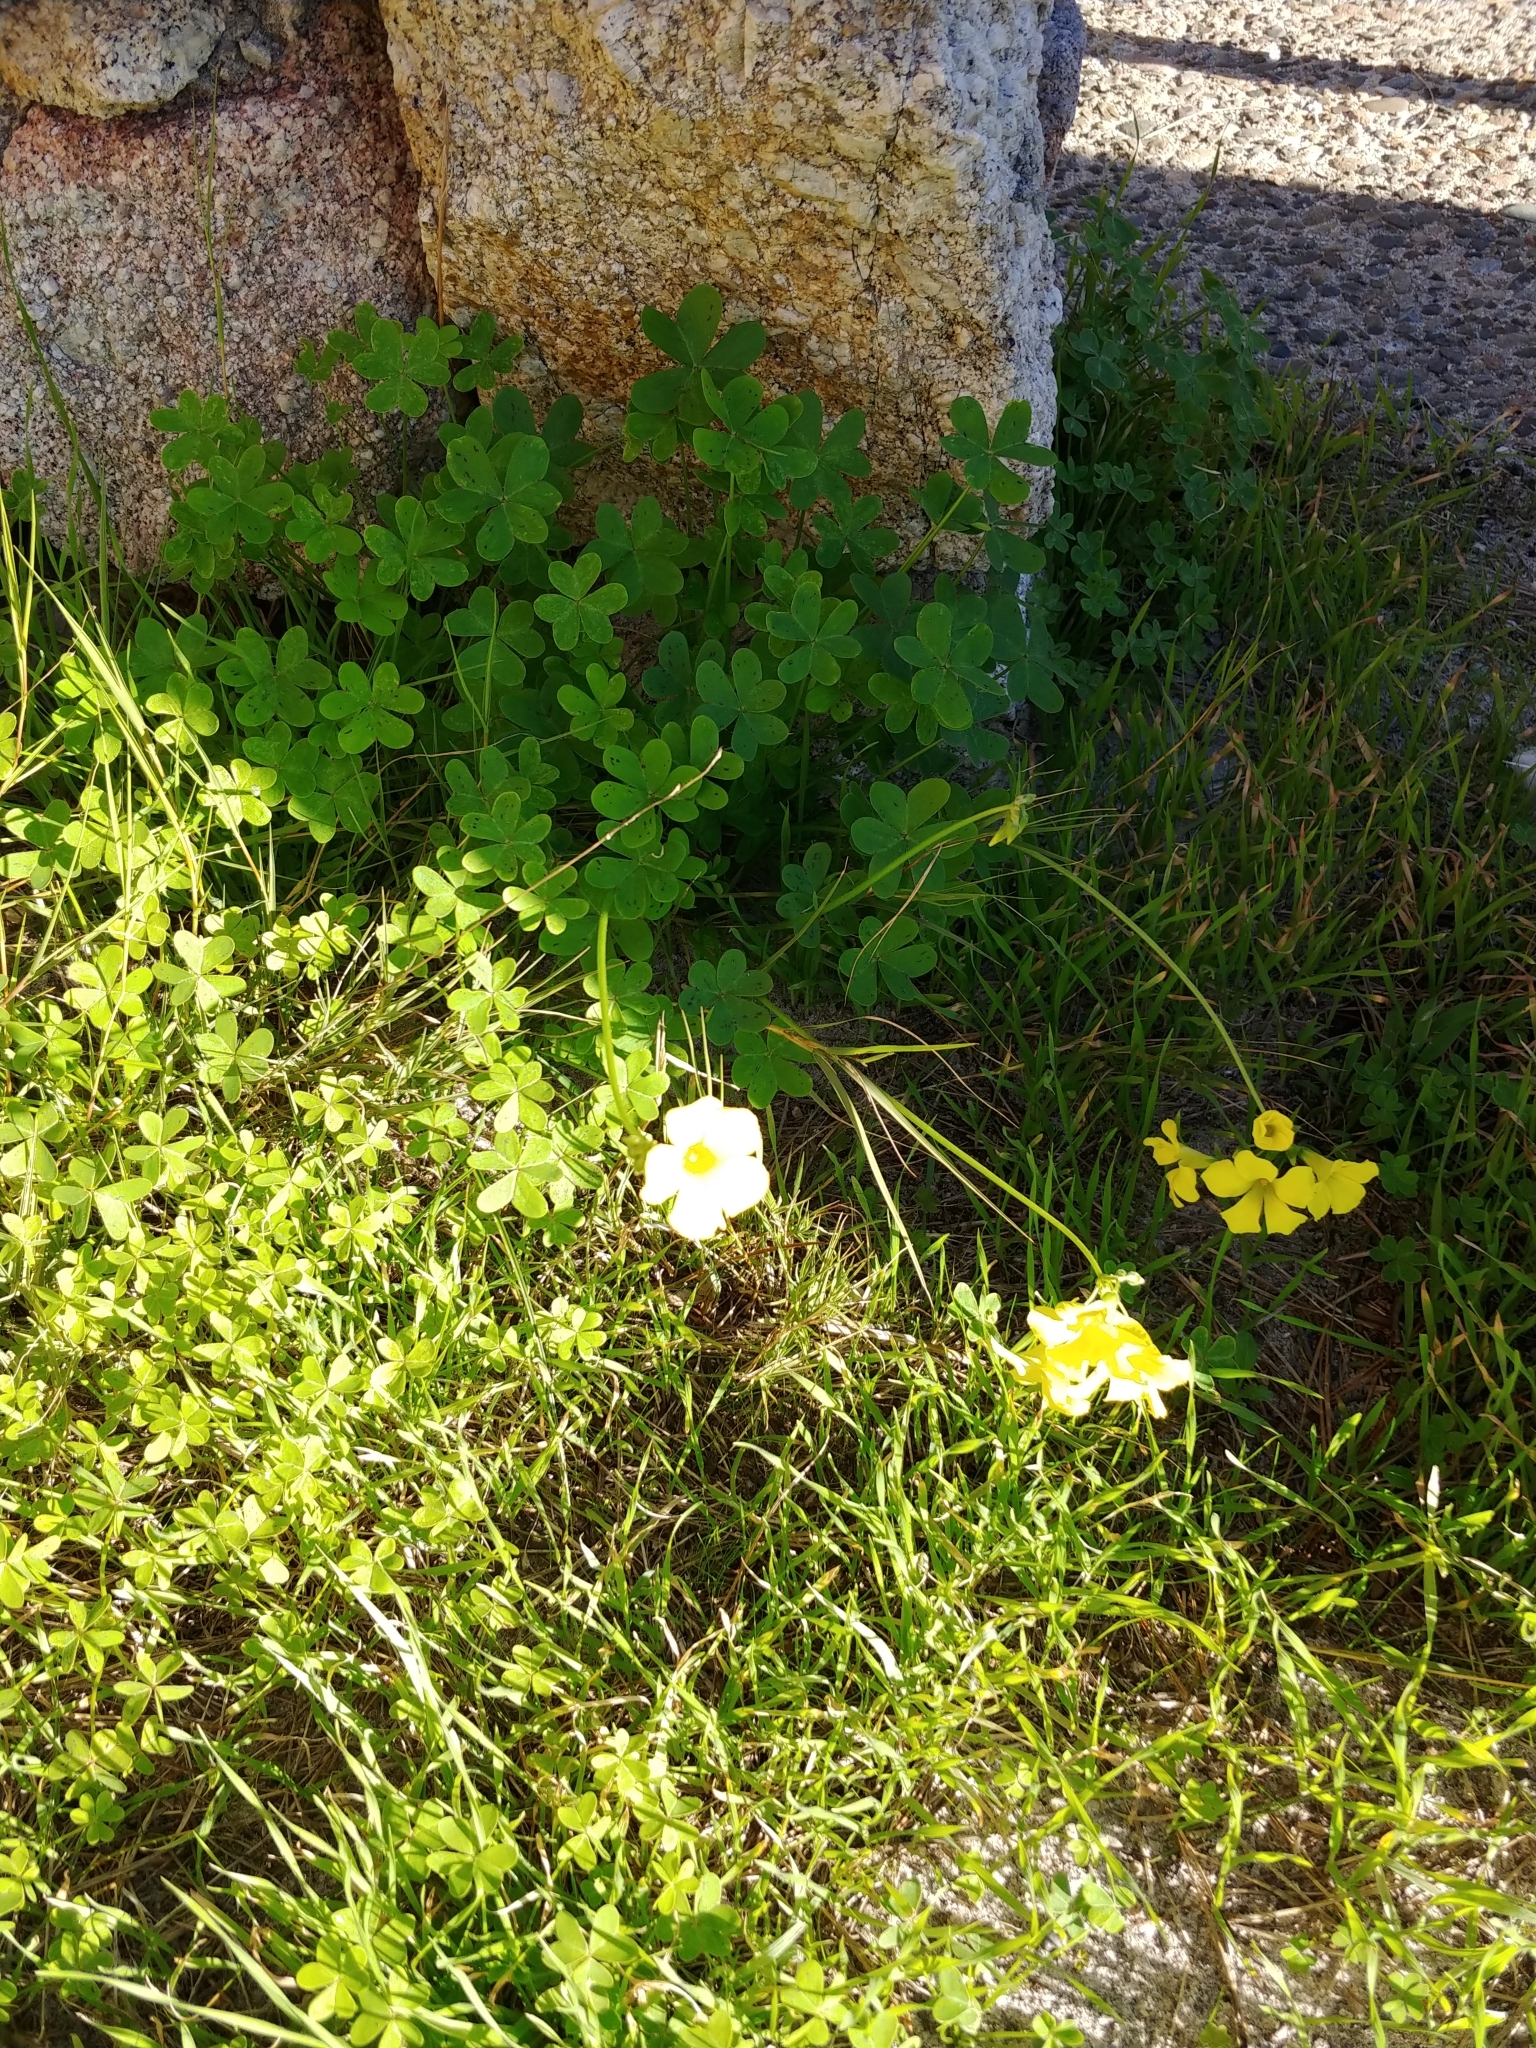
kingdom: Plantae
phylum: Tracheophyta
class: Magnoliopsida
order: Oxalidales
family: Oxalidaceae
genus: Oxalis
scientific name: Oxalis pes-caprae
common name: Bermuda-buttercup
